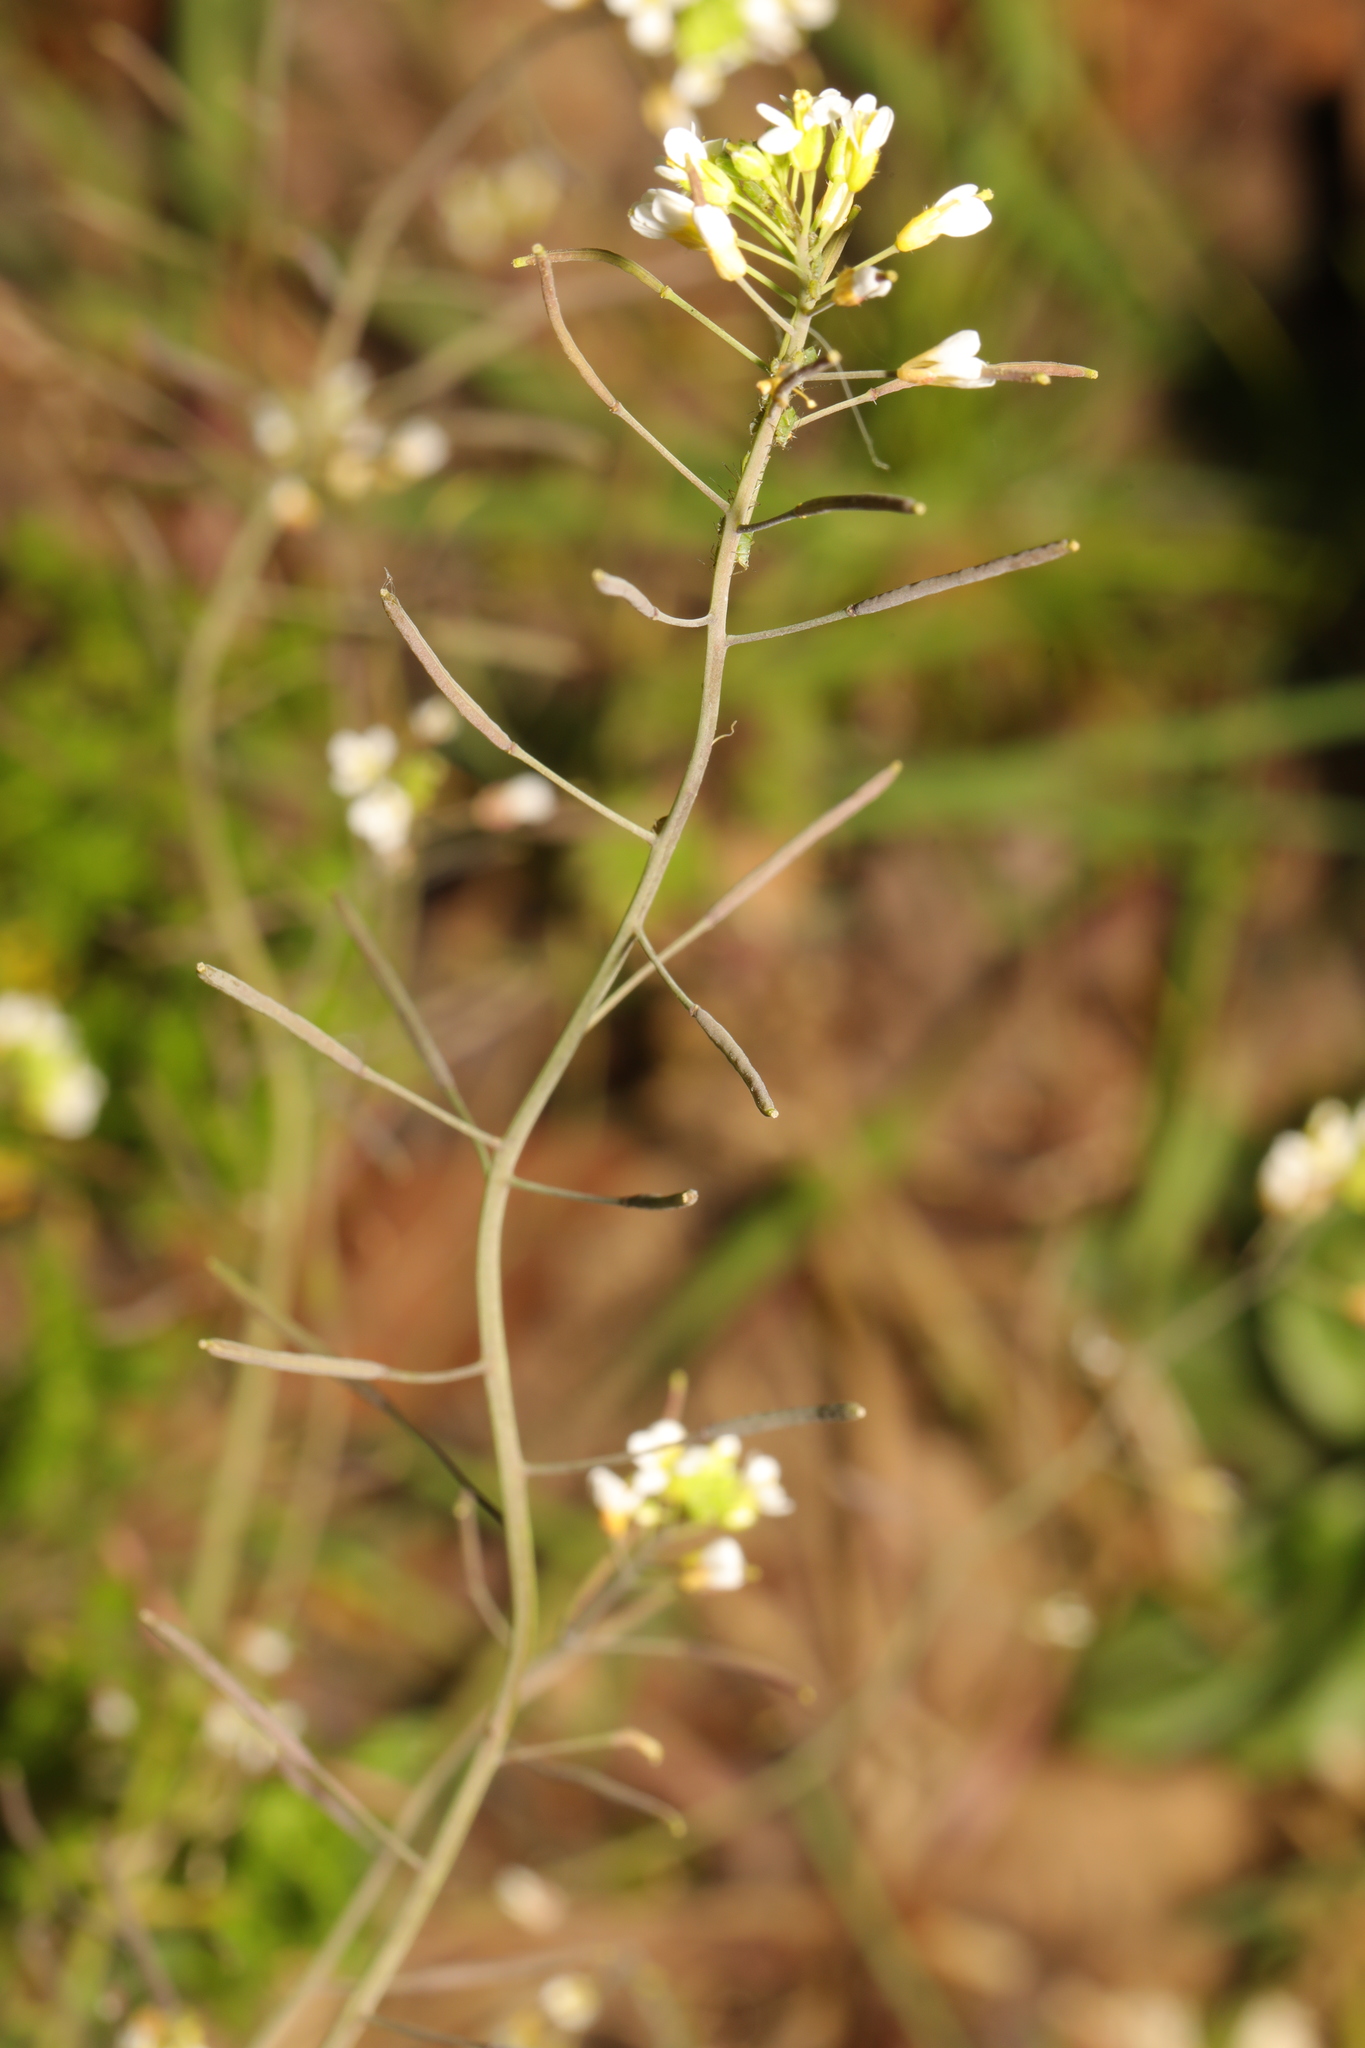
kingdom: Plantae
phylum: Tracheophyta
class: Magnoliopsida
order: Brassicales
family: Brassicaceae
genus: Arabidopsis
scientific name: Arabidopsis thaliana
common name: Thale cress
